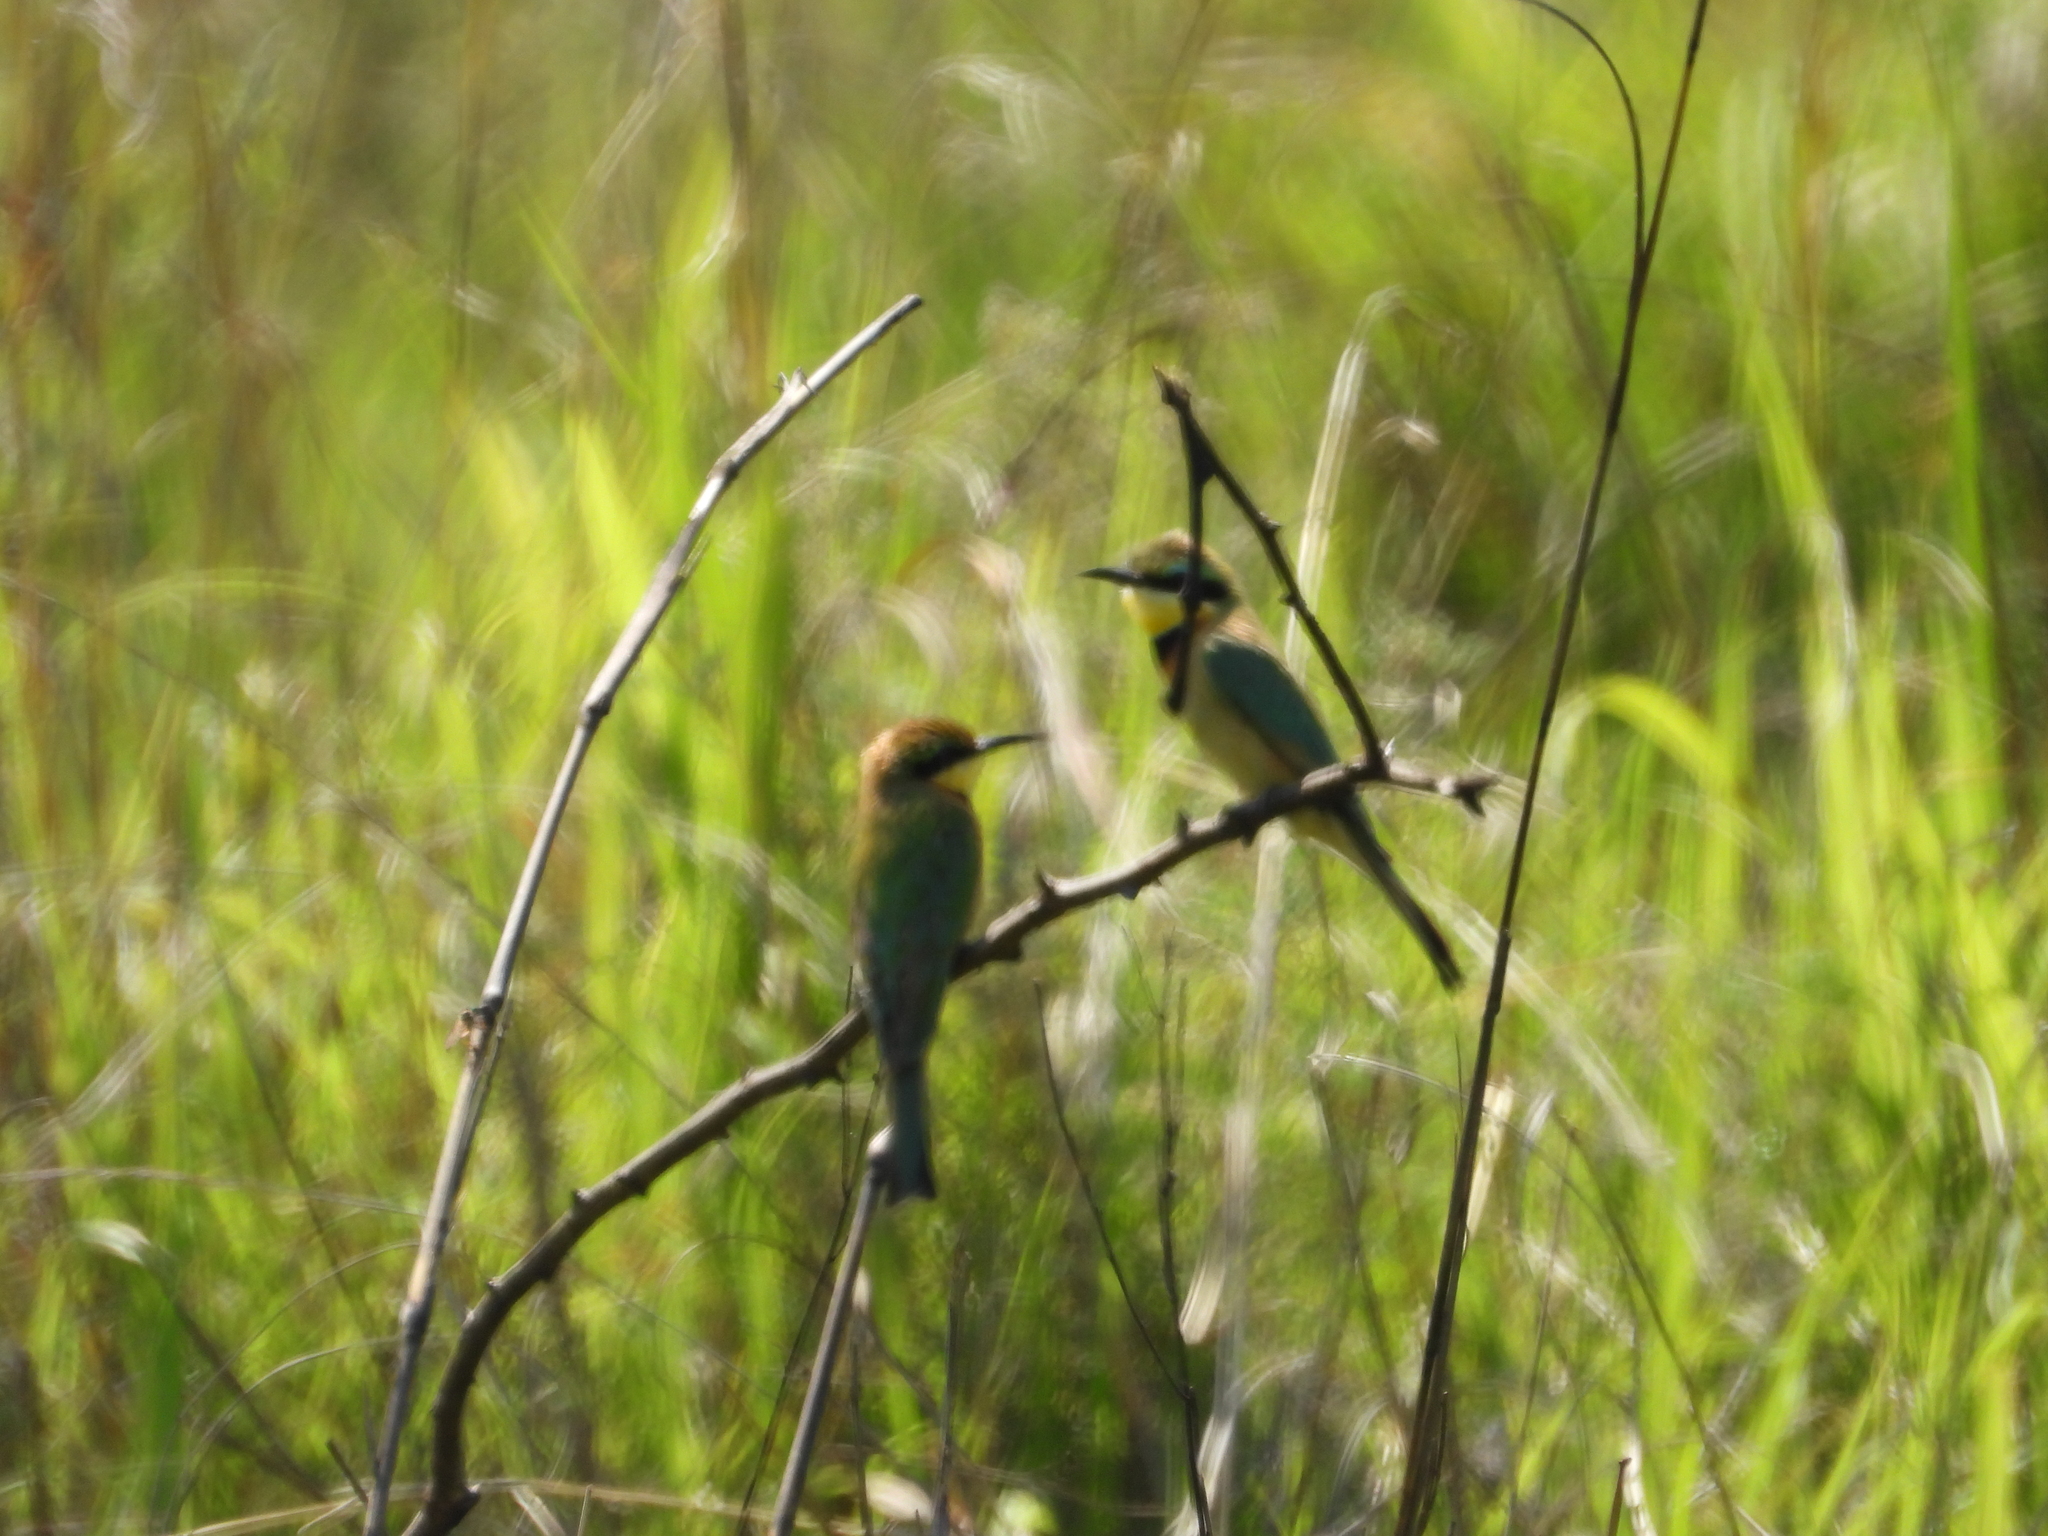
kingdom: Animalia
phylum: Chordata
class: Aves
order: Coraciiformes
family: Meropidae
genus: Merops
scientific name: Merops pusillus
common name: Little bee-eater
